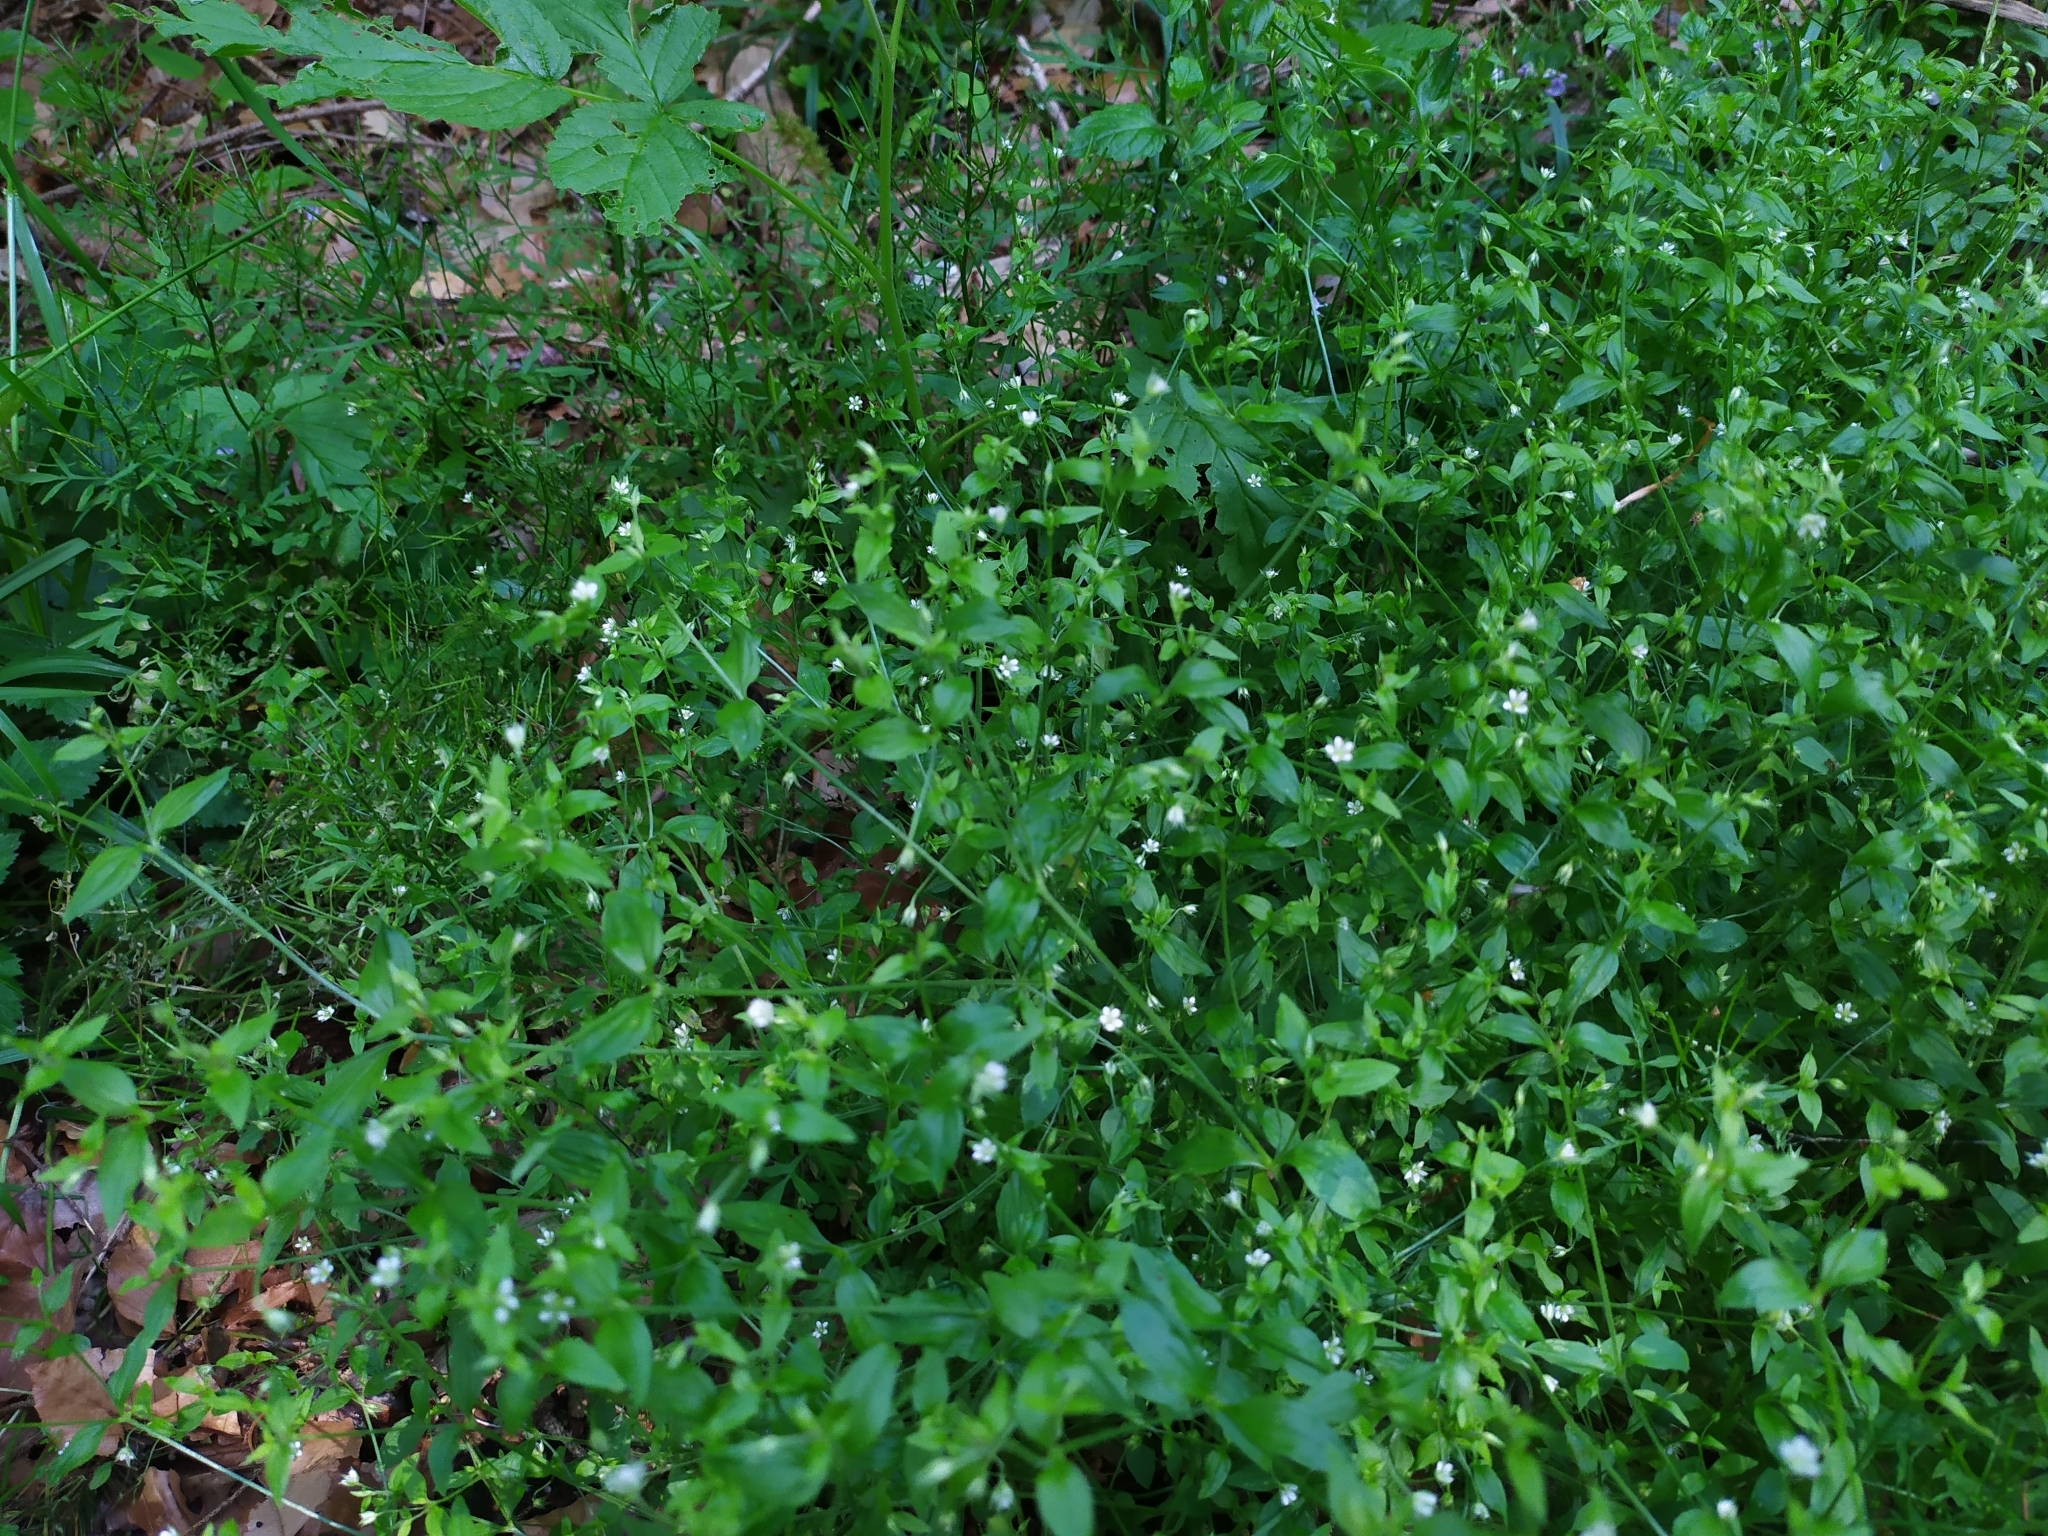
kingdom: Plantae
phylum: Tracheophyta
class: Magnoliopsida
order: Caryophyllales
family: Caryophyllaceae
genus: Moehringia
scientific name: Moehringia trinervia
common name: Three-nerved sandwort
